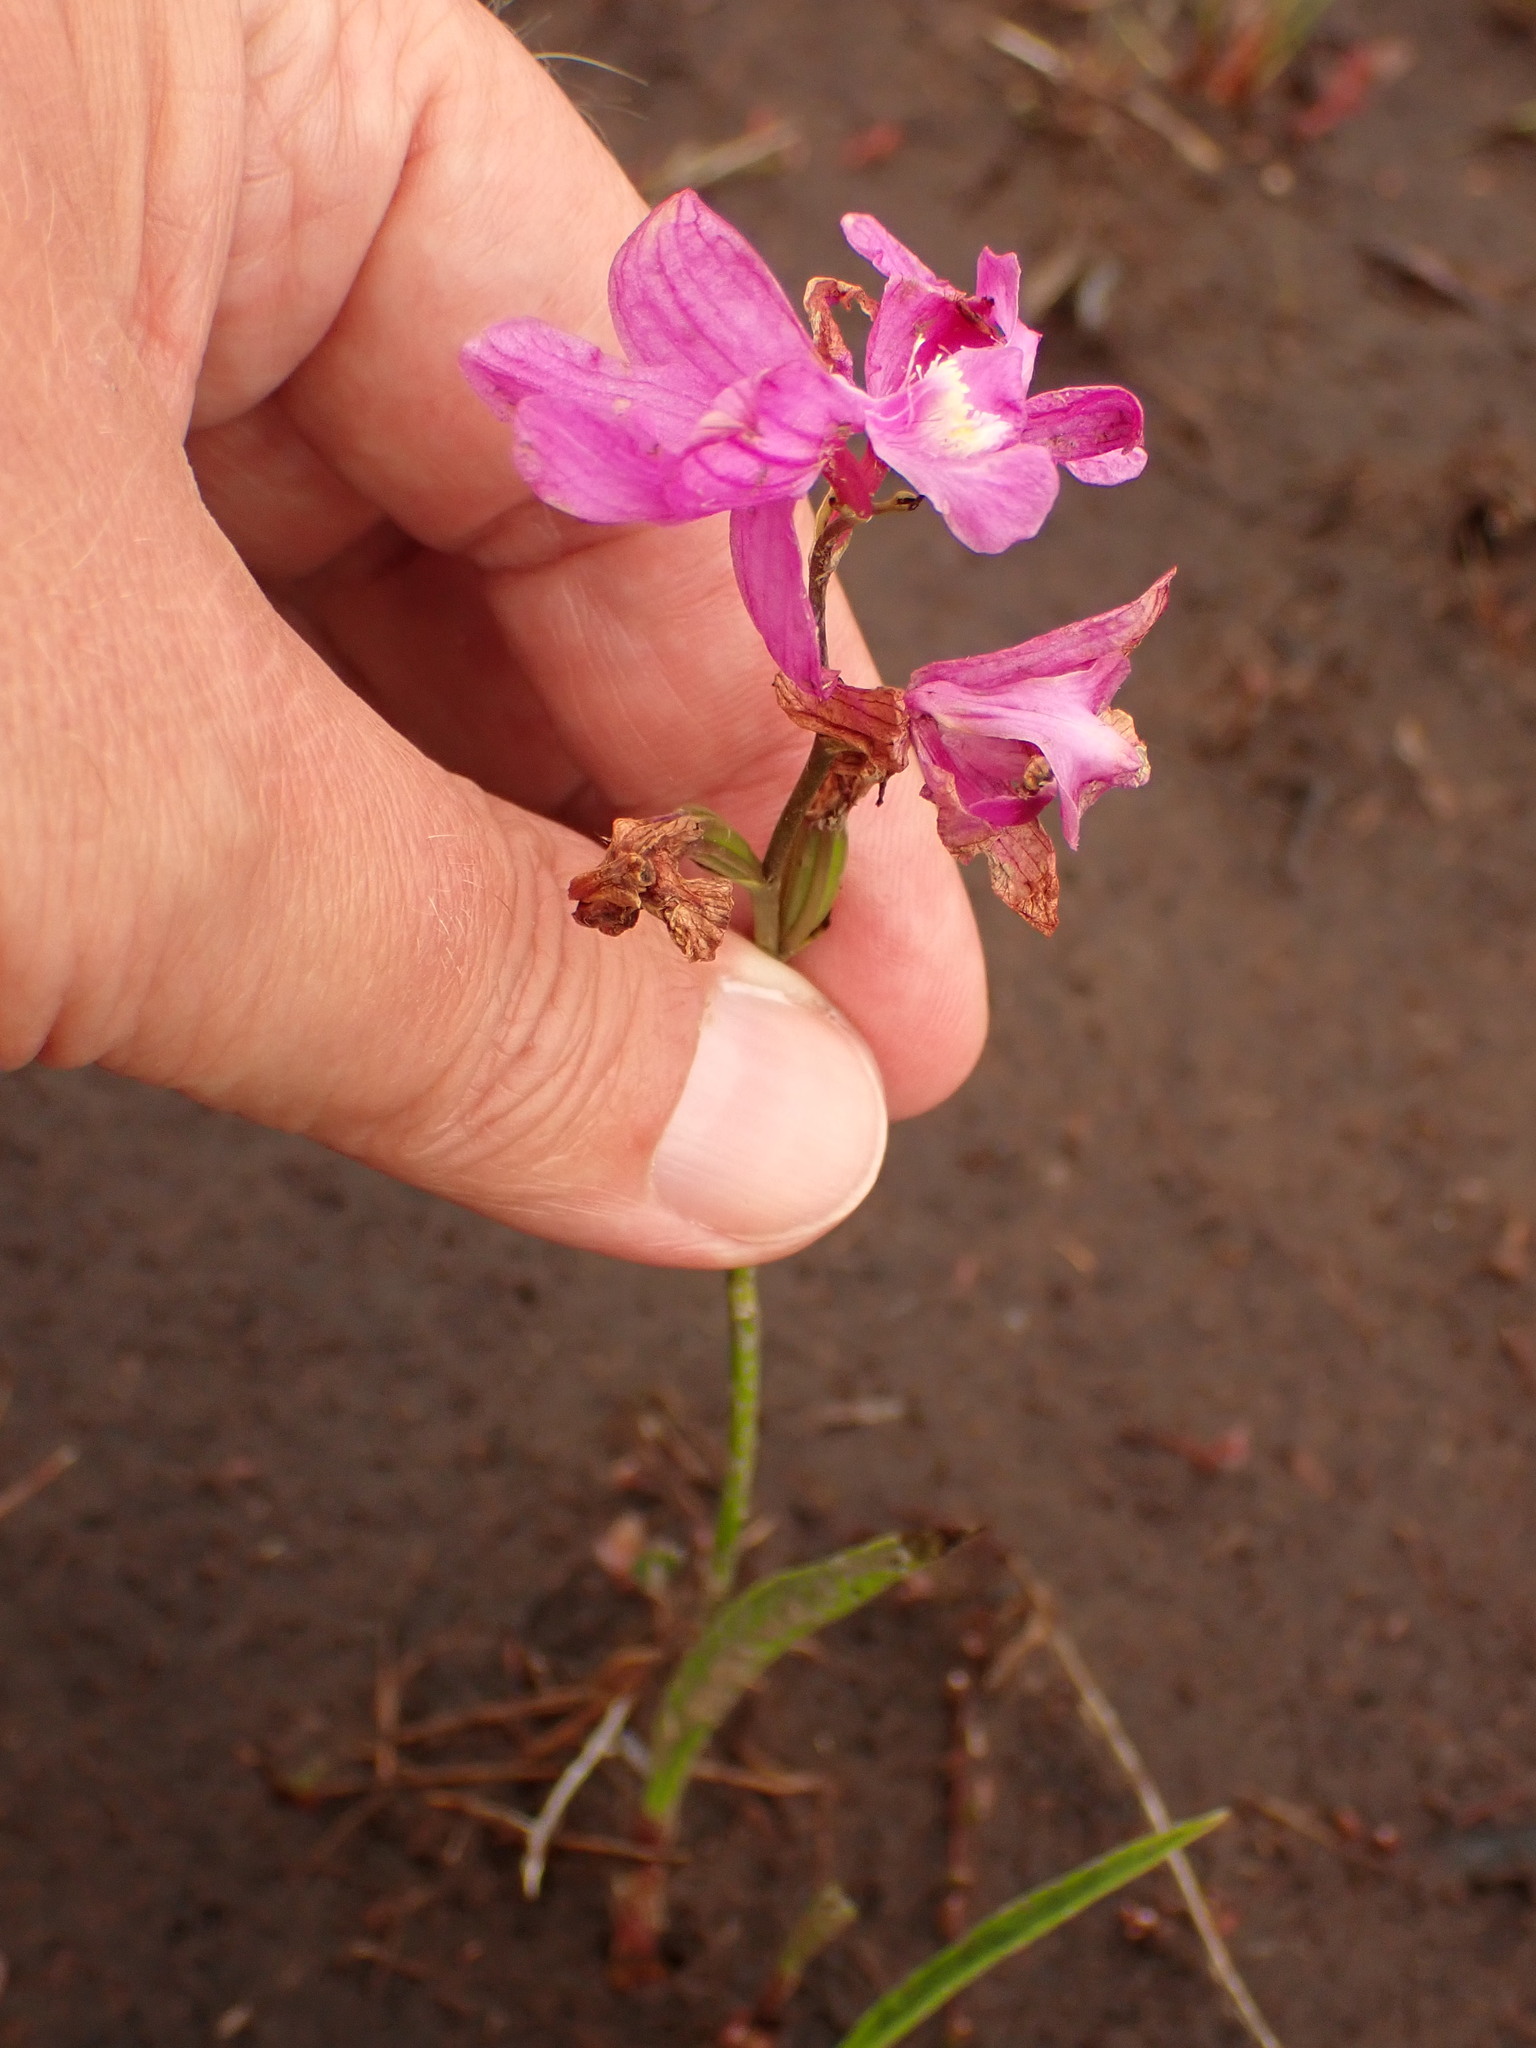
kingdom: Plantae
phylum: Tracheophyta
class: Liliopsida
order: Asparagales
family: Orchidaceae
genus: Calopogon
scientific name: Calopogon tuberosus
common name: Grass-pink
